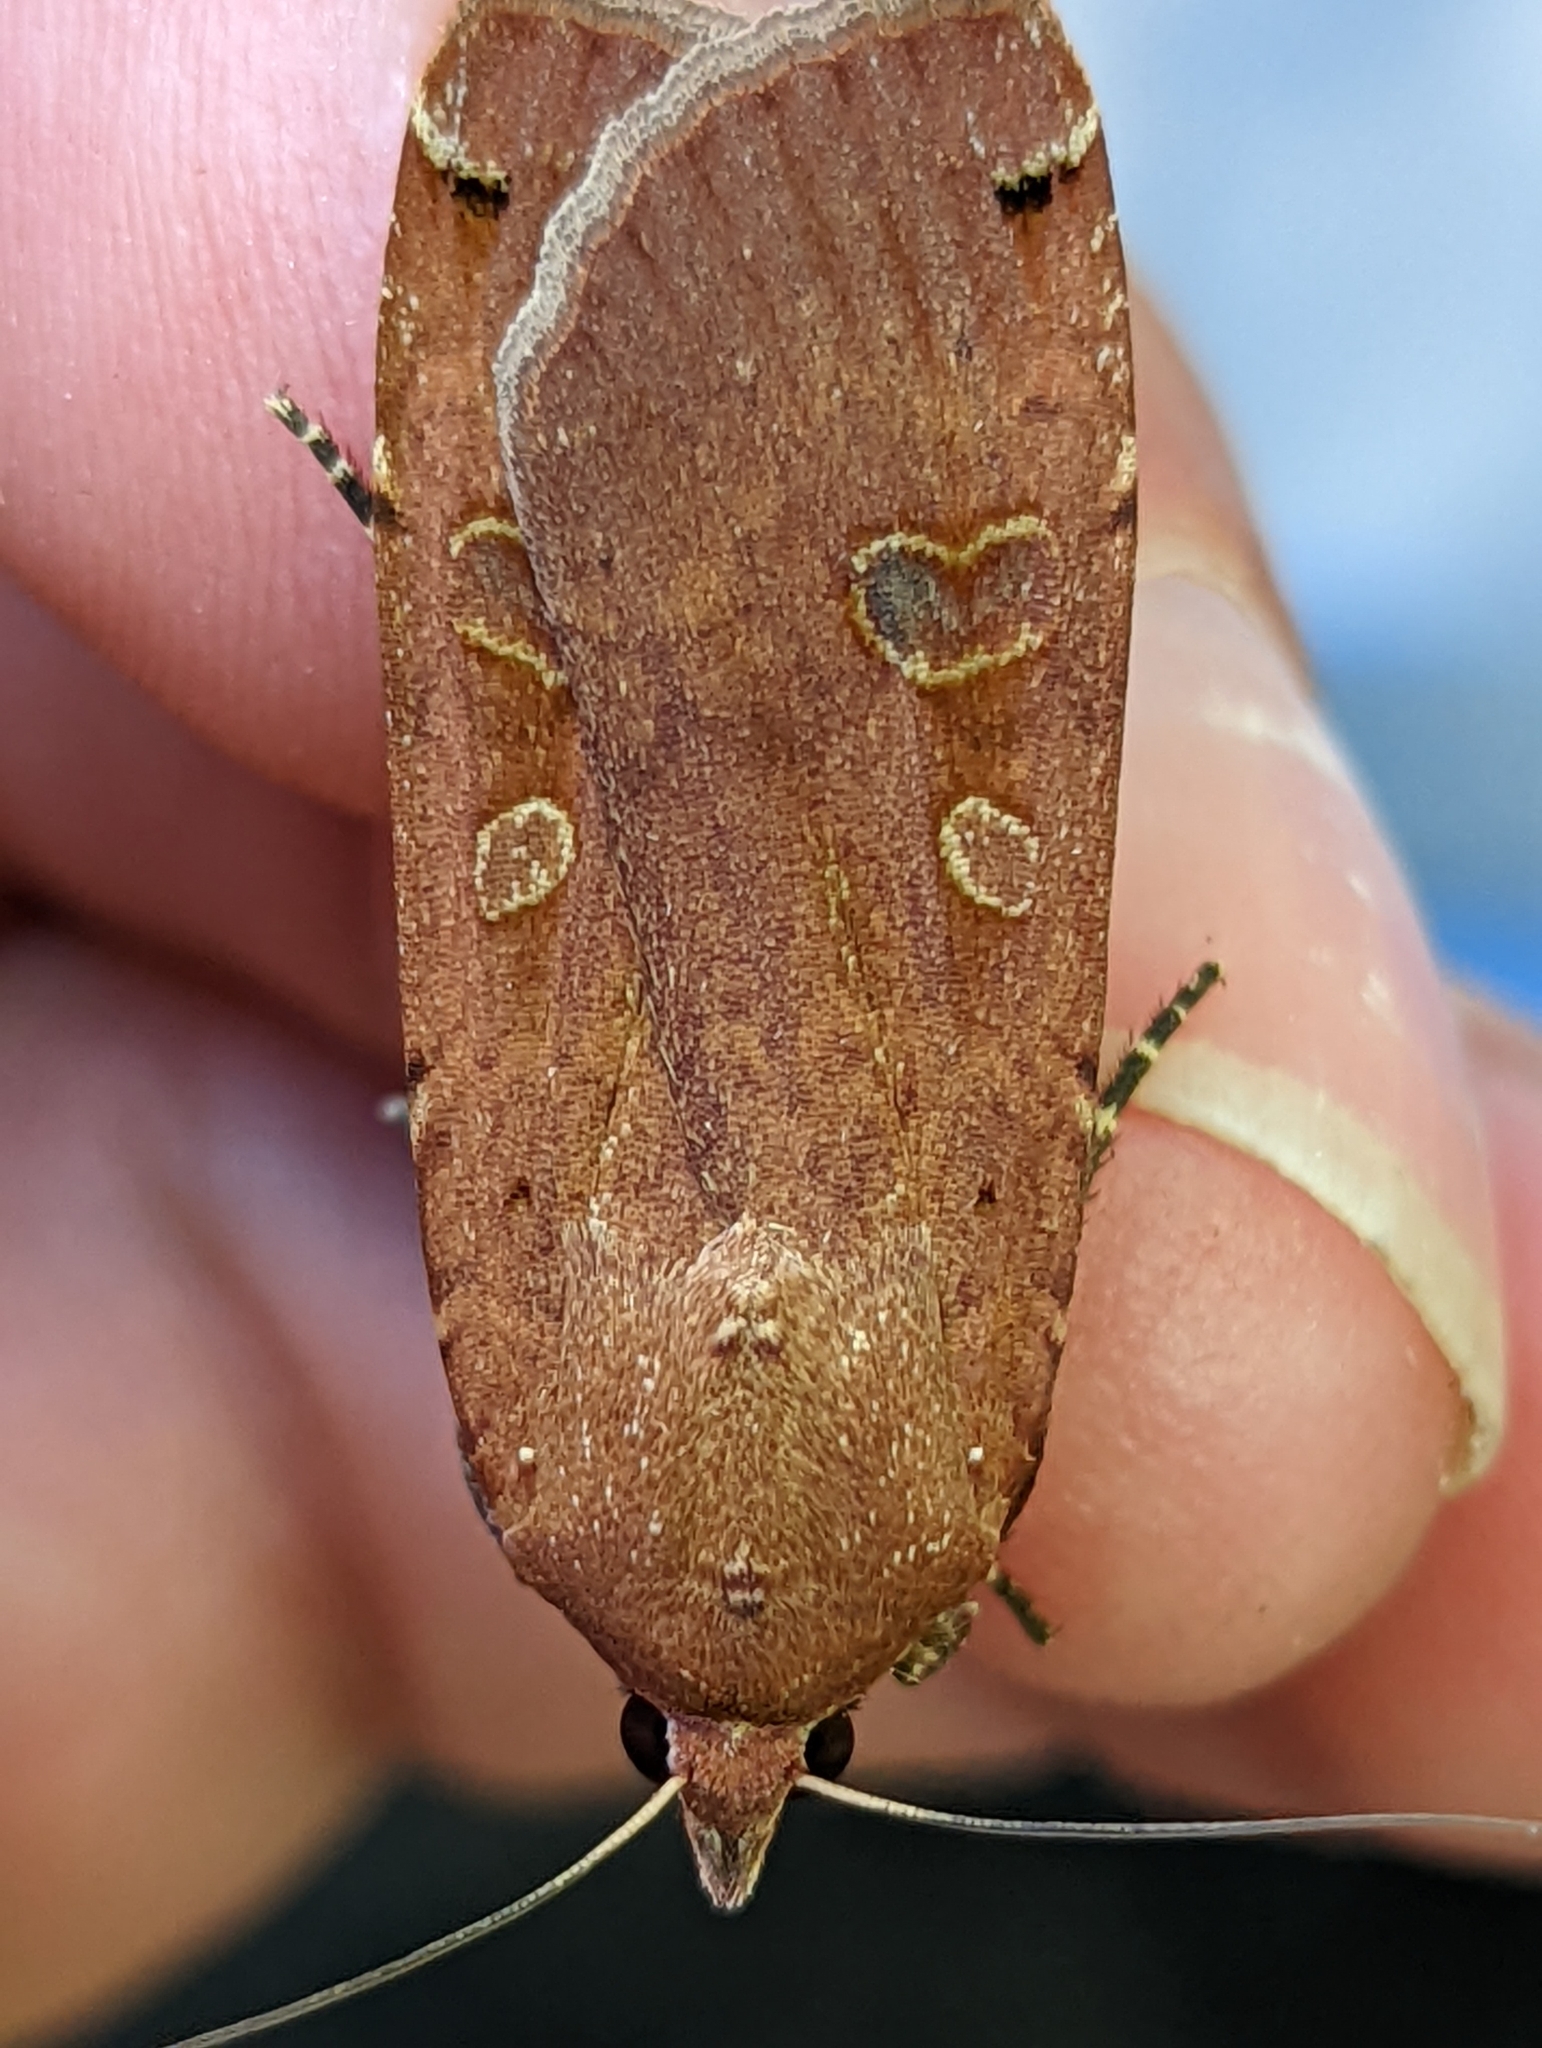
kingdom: Animalia
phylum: Arthropoda
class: Insecta
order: Lepidoptera
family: Noctuidae
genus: Noctua
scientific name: Noctua pronuba
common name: Large yellow underwing
